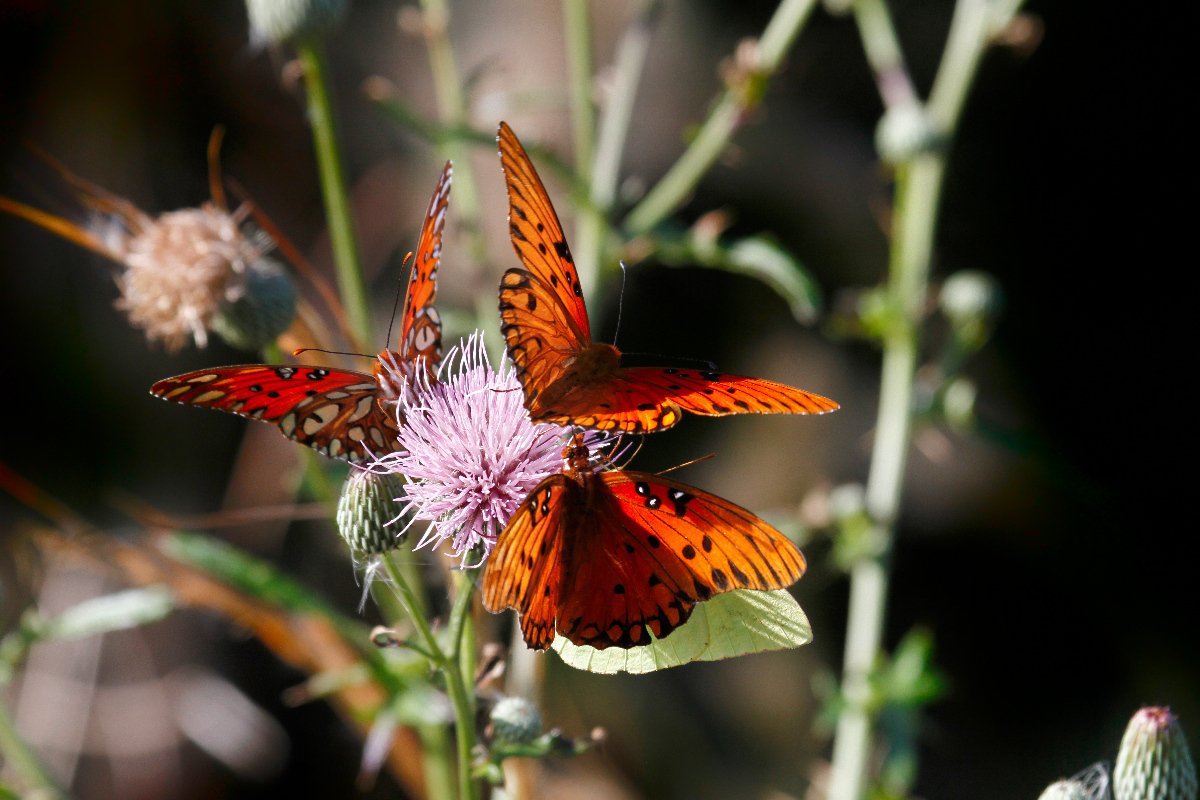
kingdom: Animalia
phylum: Arthropoda
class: Insecta
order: Lepidoptera
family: Nymphalidae
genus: Dione
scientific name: Dione vanillae
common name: Gulf fritillary
